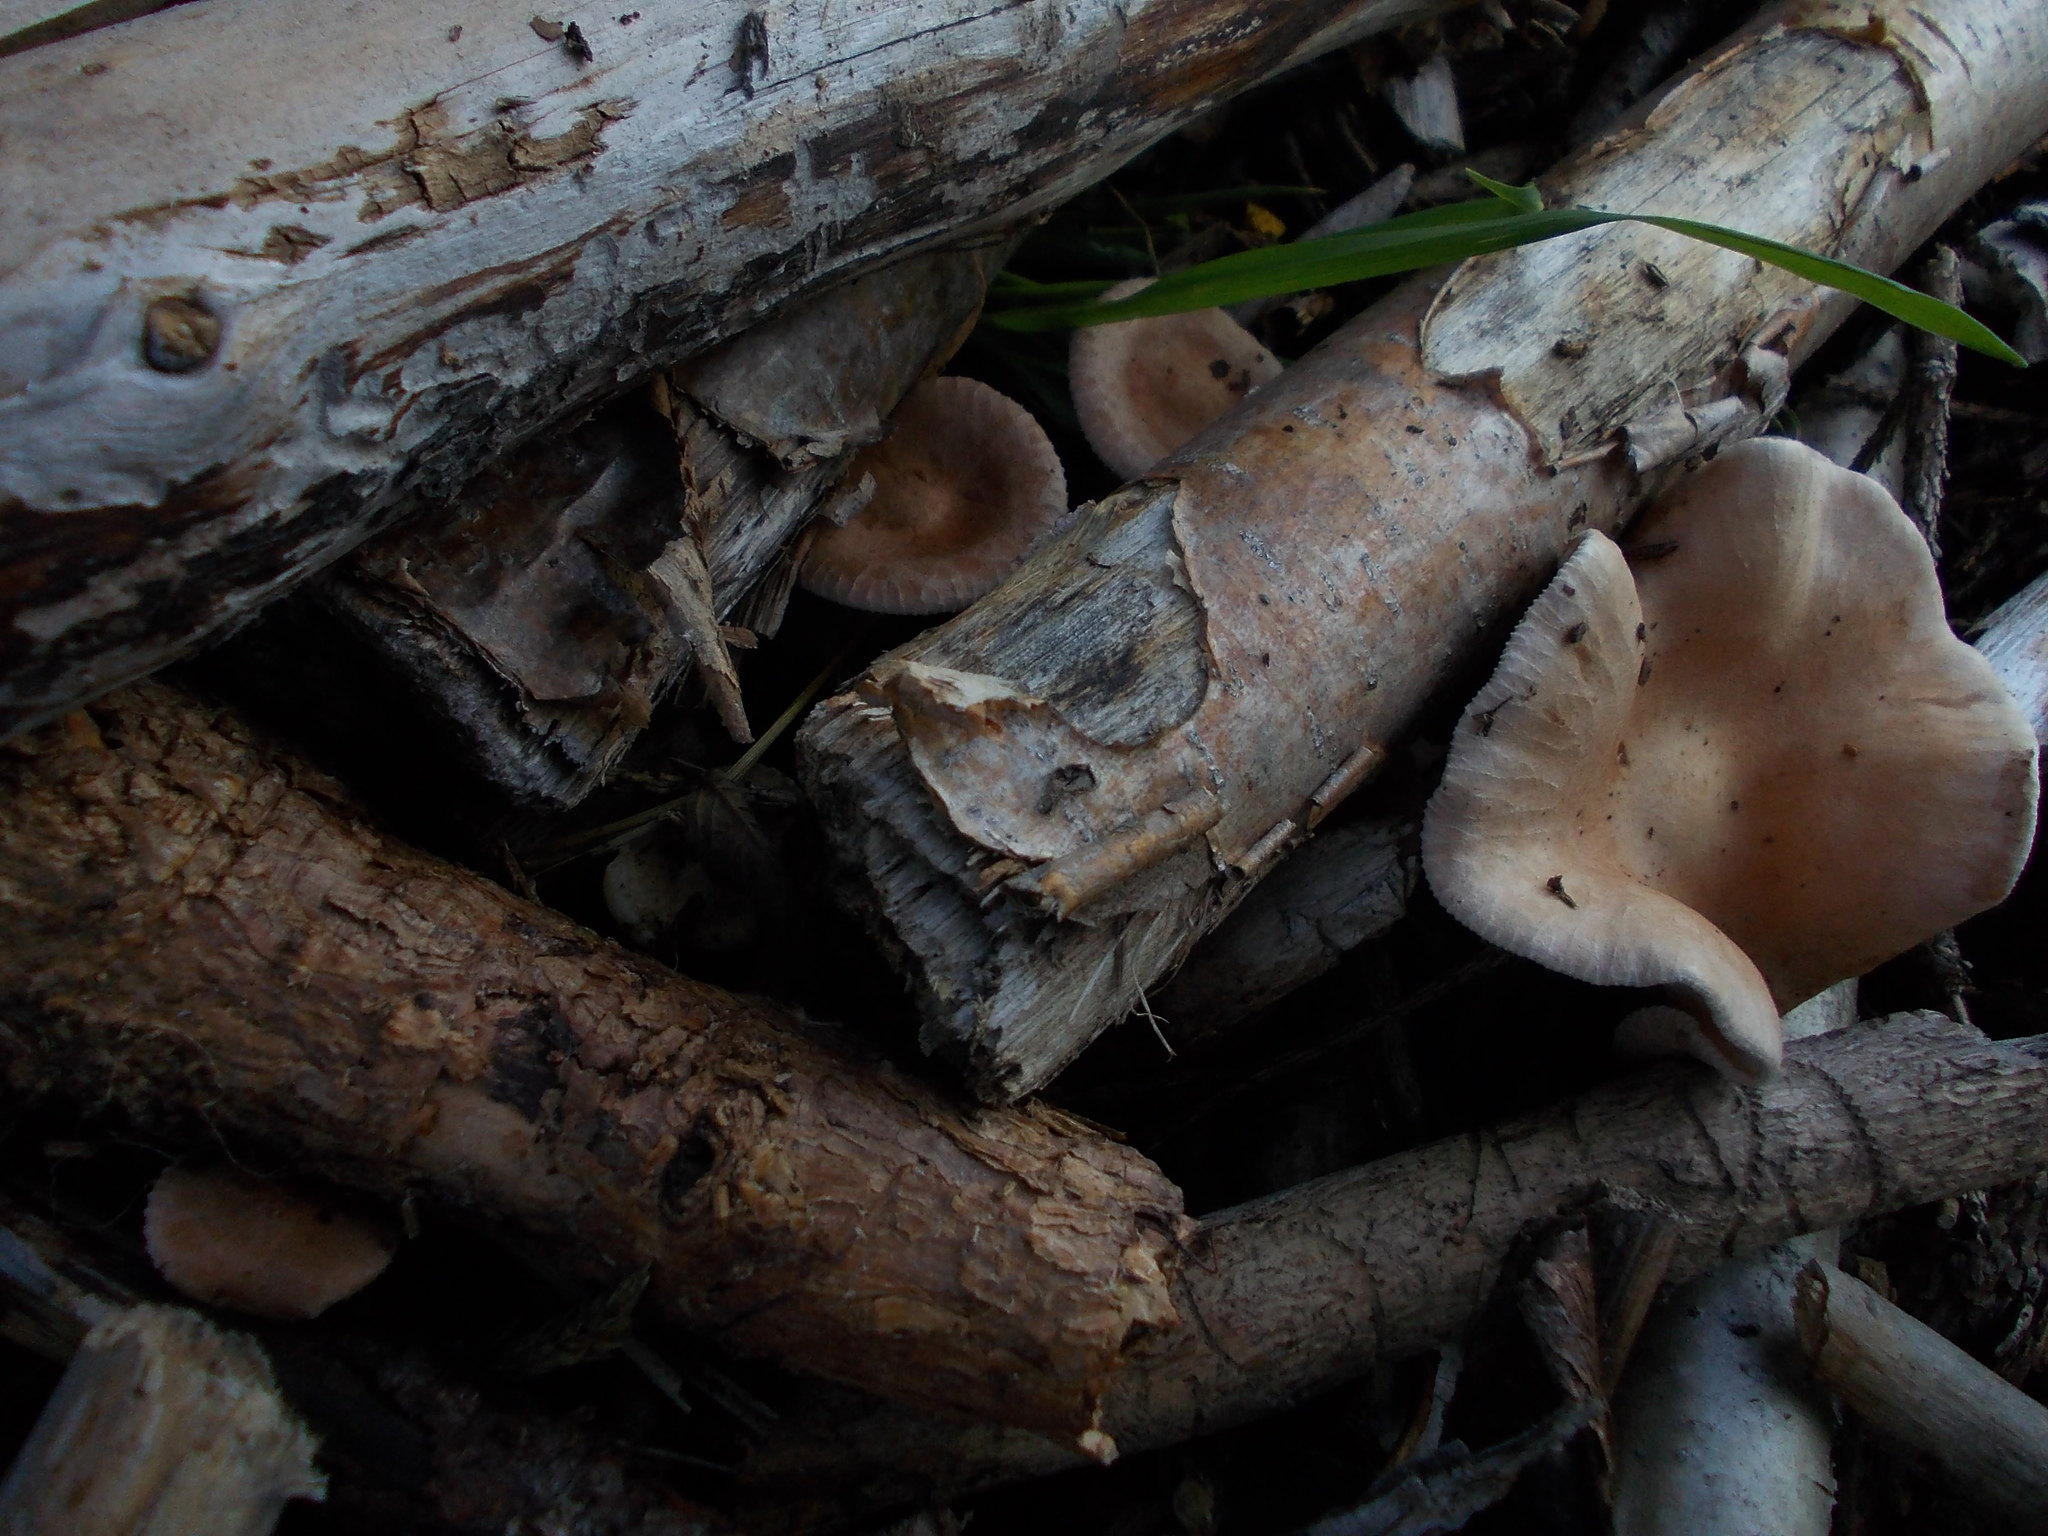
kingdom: Fungi
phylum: Basidiomycota
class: Agaricomycetes
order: Agaricales
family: Tricholomataceae
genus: Clitocybe
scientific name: Clitocybe costata
